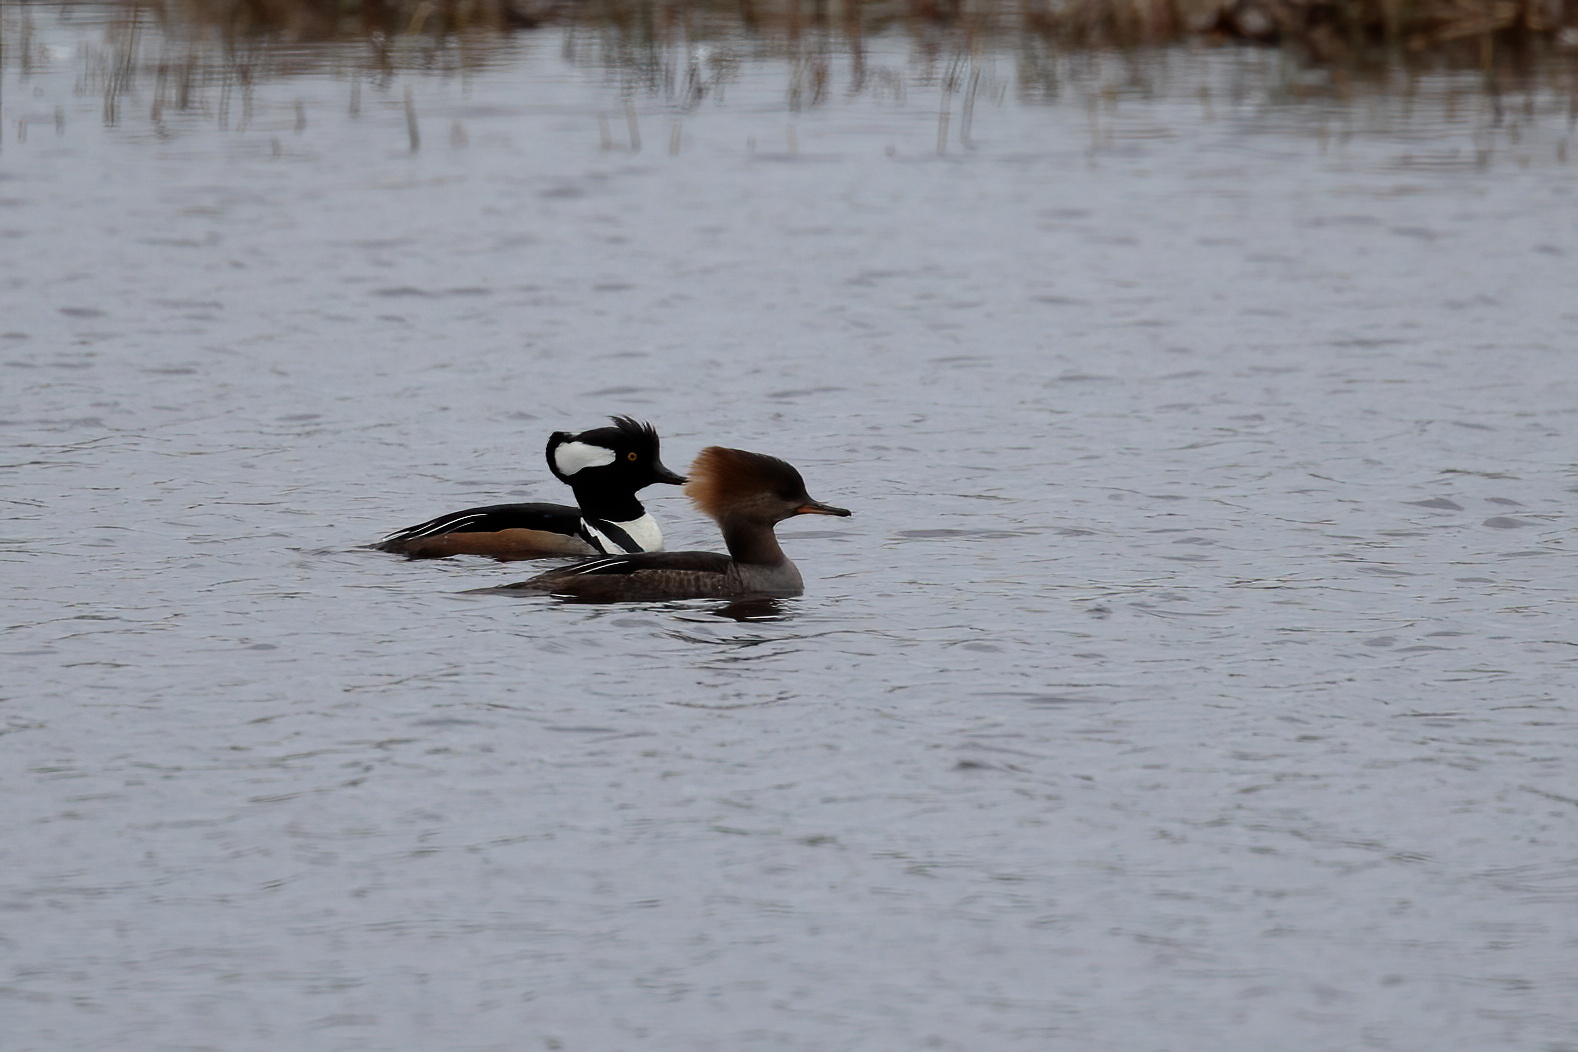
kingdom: Animalia
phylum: Chordata
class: Aves
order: Anseriformes
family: Anatidae
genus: Lophodytes
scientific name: Lophodytes cucullatus
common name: Hooded merganser
